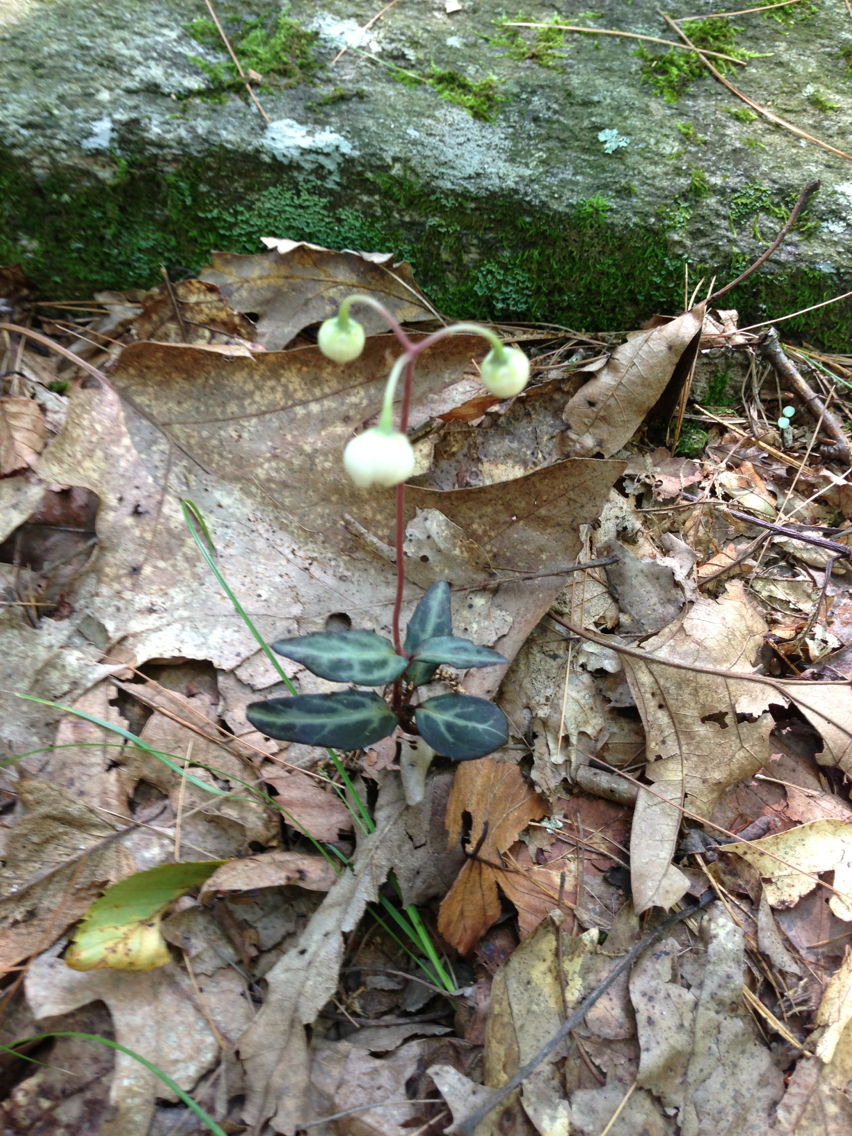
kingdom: Plantae
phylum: Tracheophyta
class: Magnoliopsida
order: Ericales
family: Ericaceae
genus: Chimaphila
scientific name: Chimaphila maculata
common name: Spotted pipsissewa
